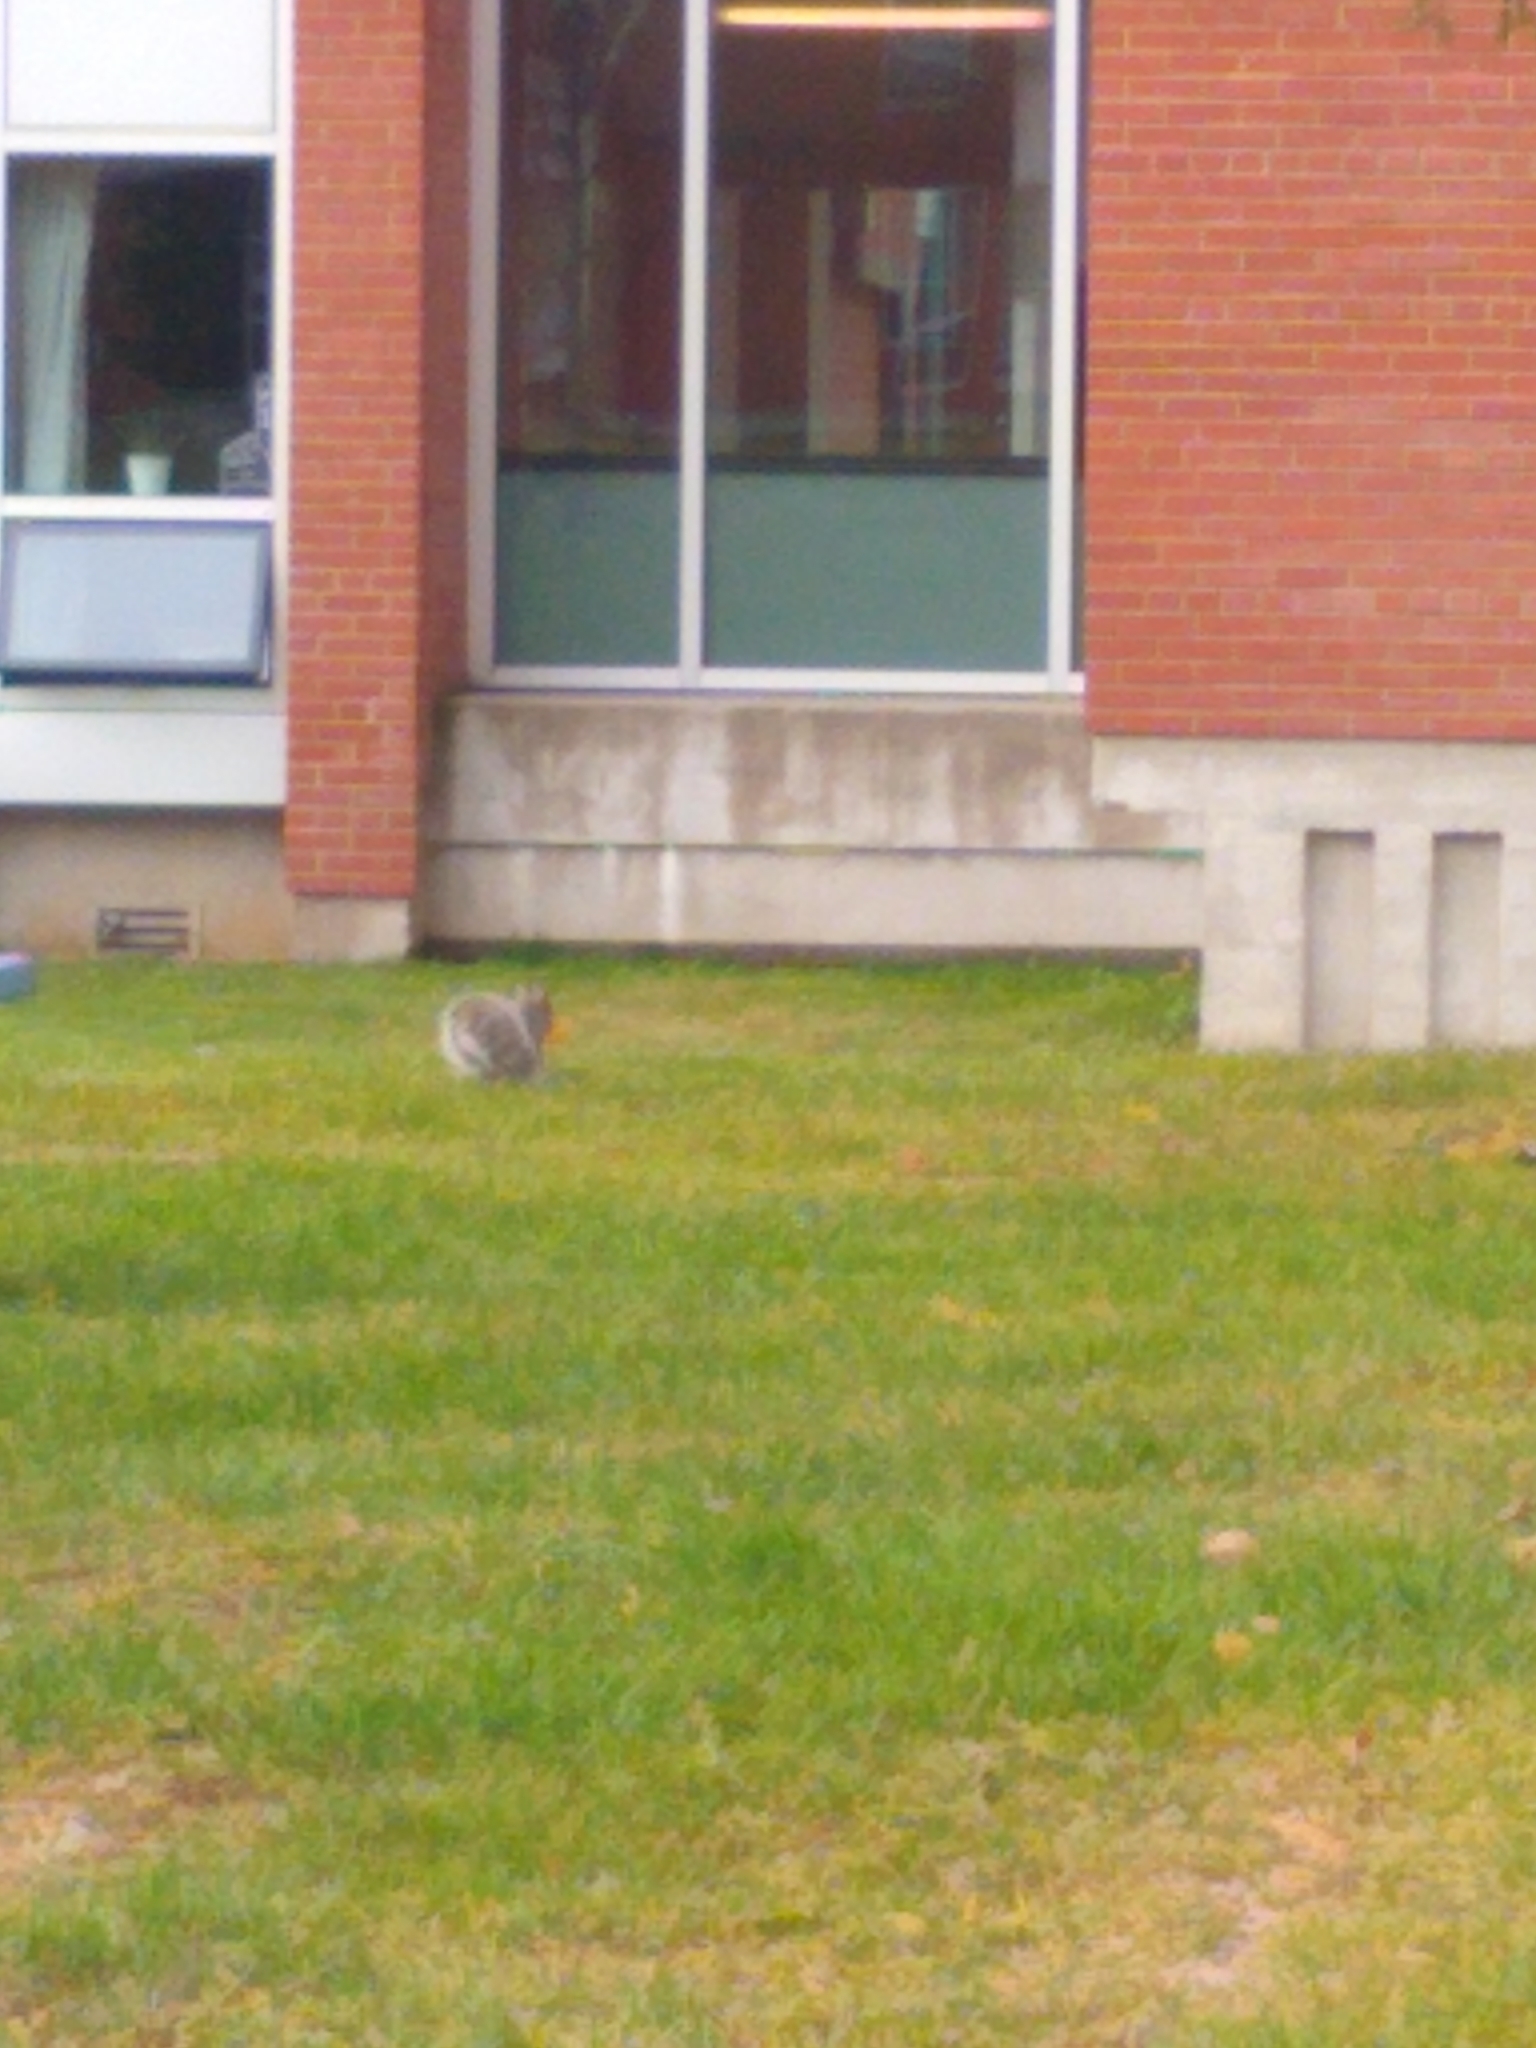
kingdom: Animalia
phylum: Chordata
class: Mammalia
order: Rodentia
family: Sciuridae
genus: Sciurus
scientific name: Sciurus carolinensis
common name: Eastern gray squirrel
